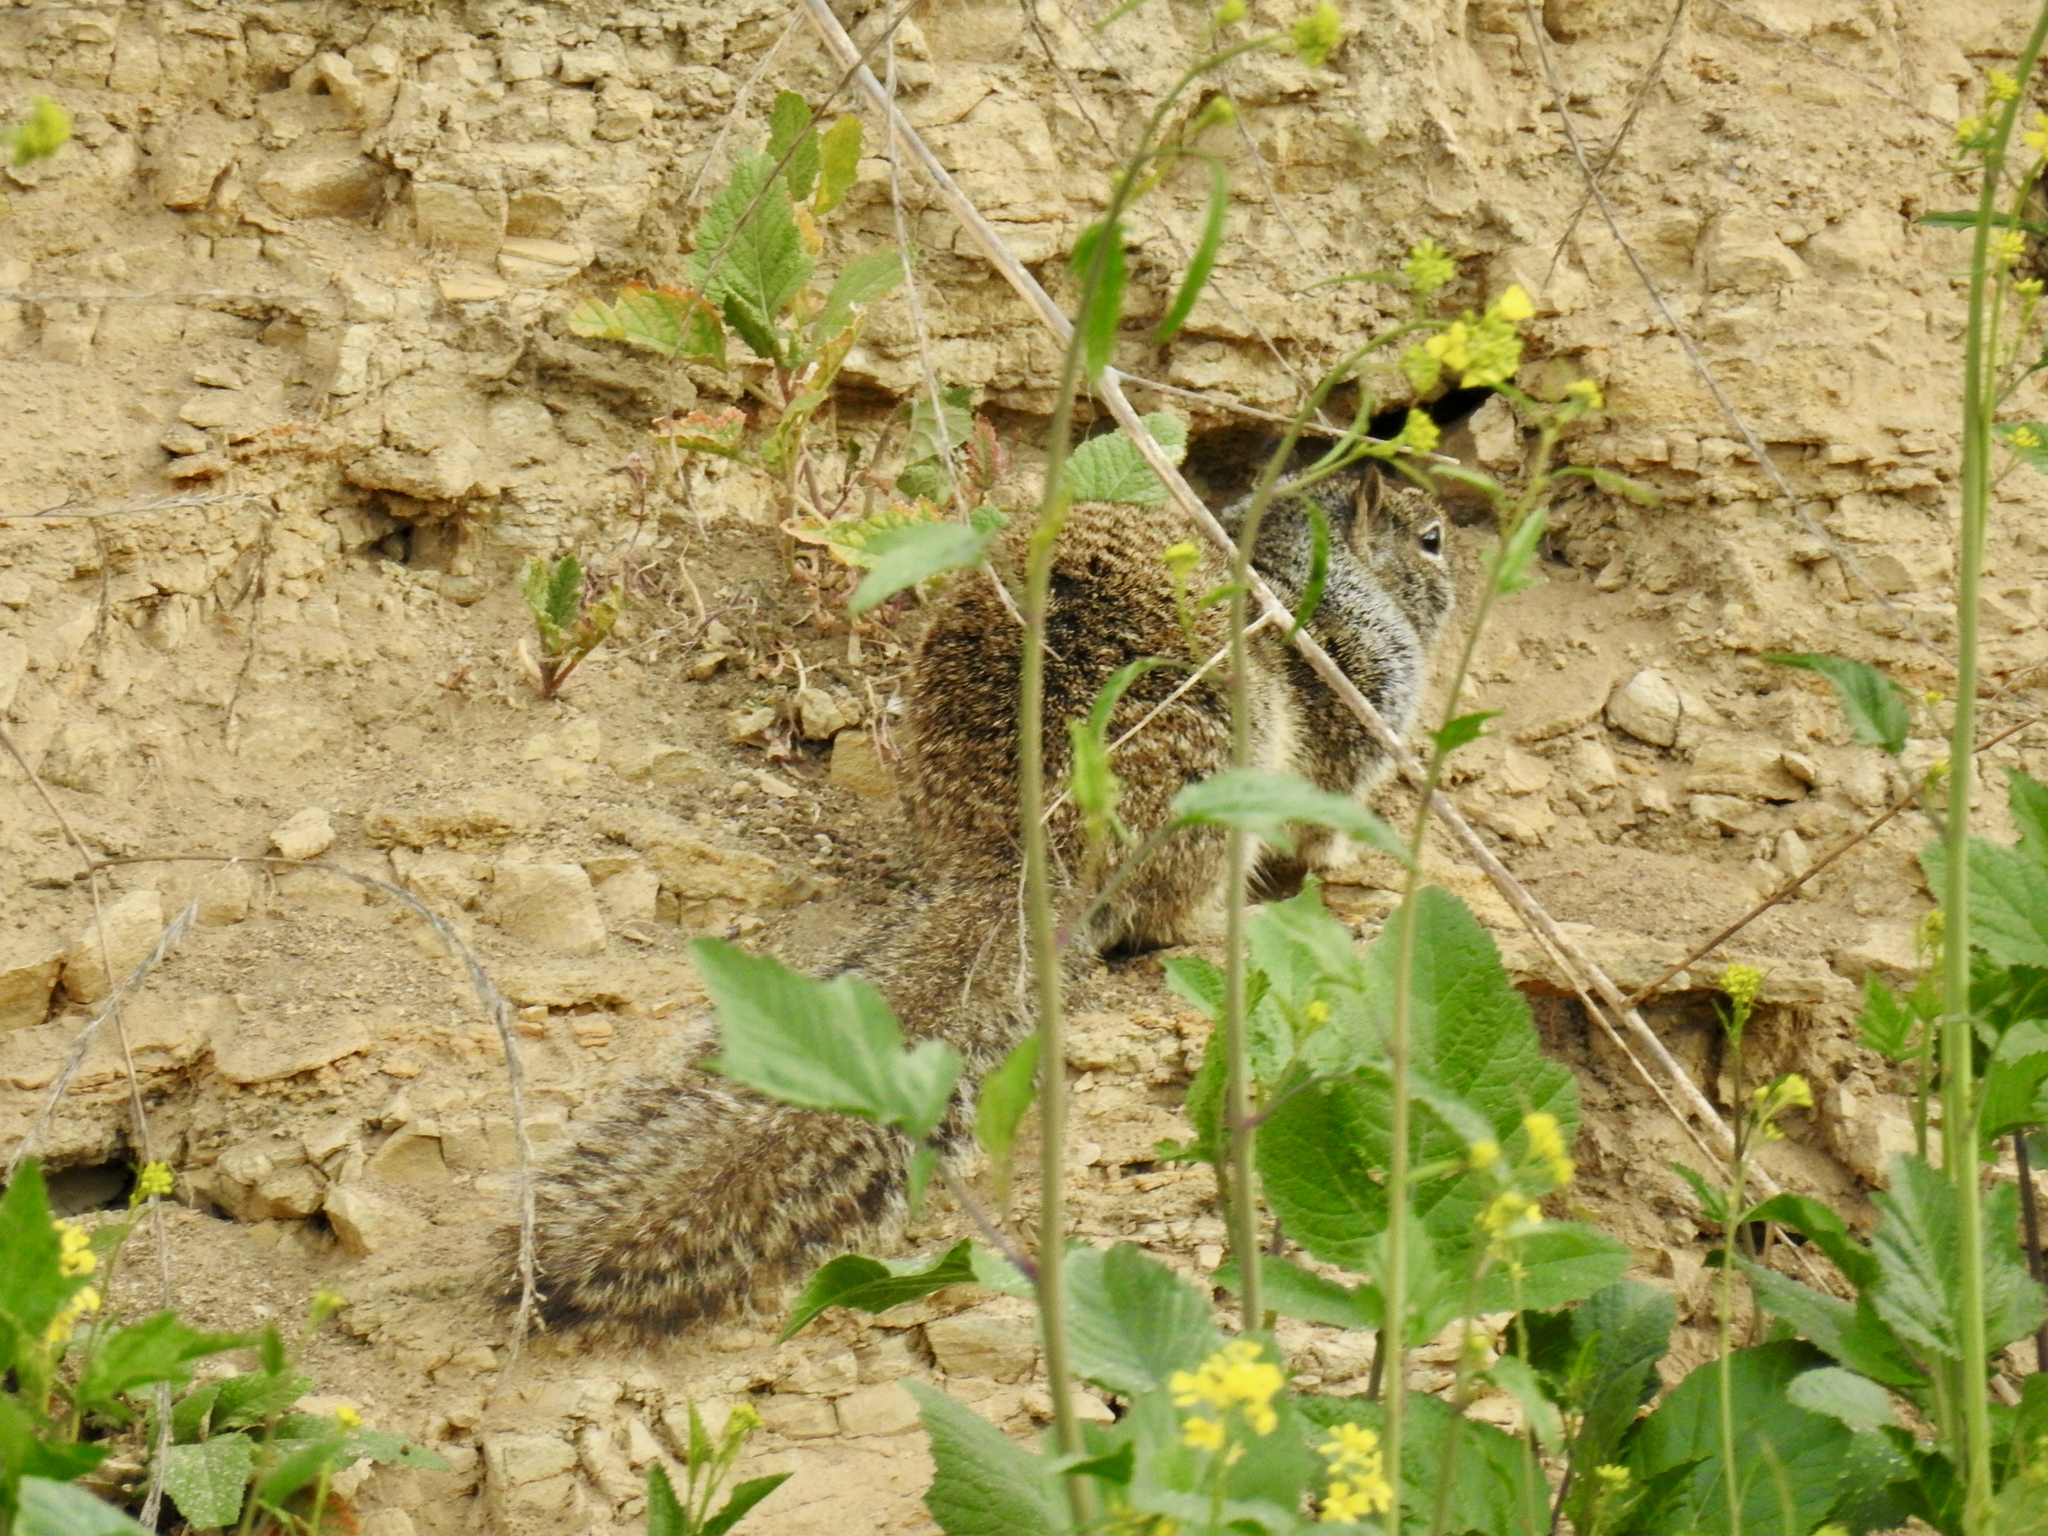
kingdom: Animalia
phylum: Chordata
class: Mammalia
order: Rodentia
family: Sciuridae
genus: Otospermophilus
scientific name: Otospermophilus beecheyi
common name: California ground squirrel
